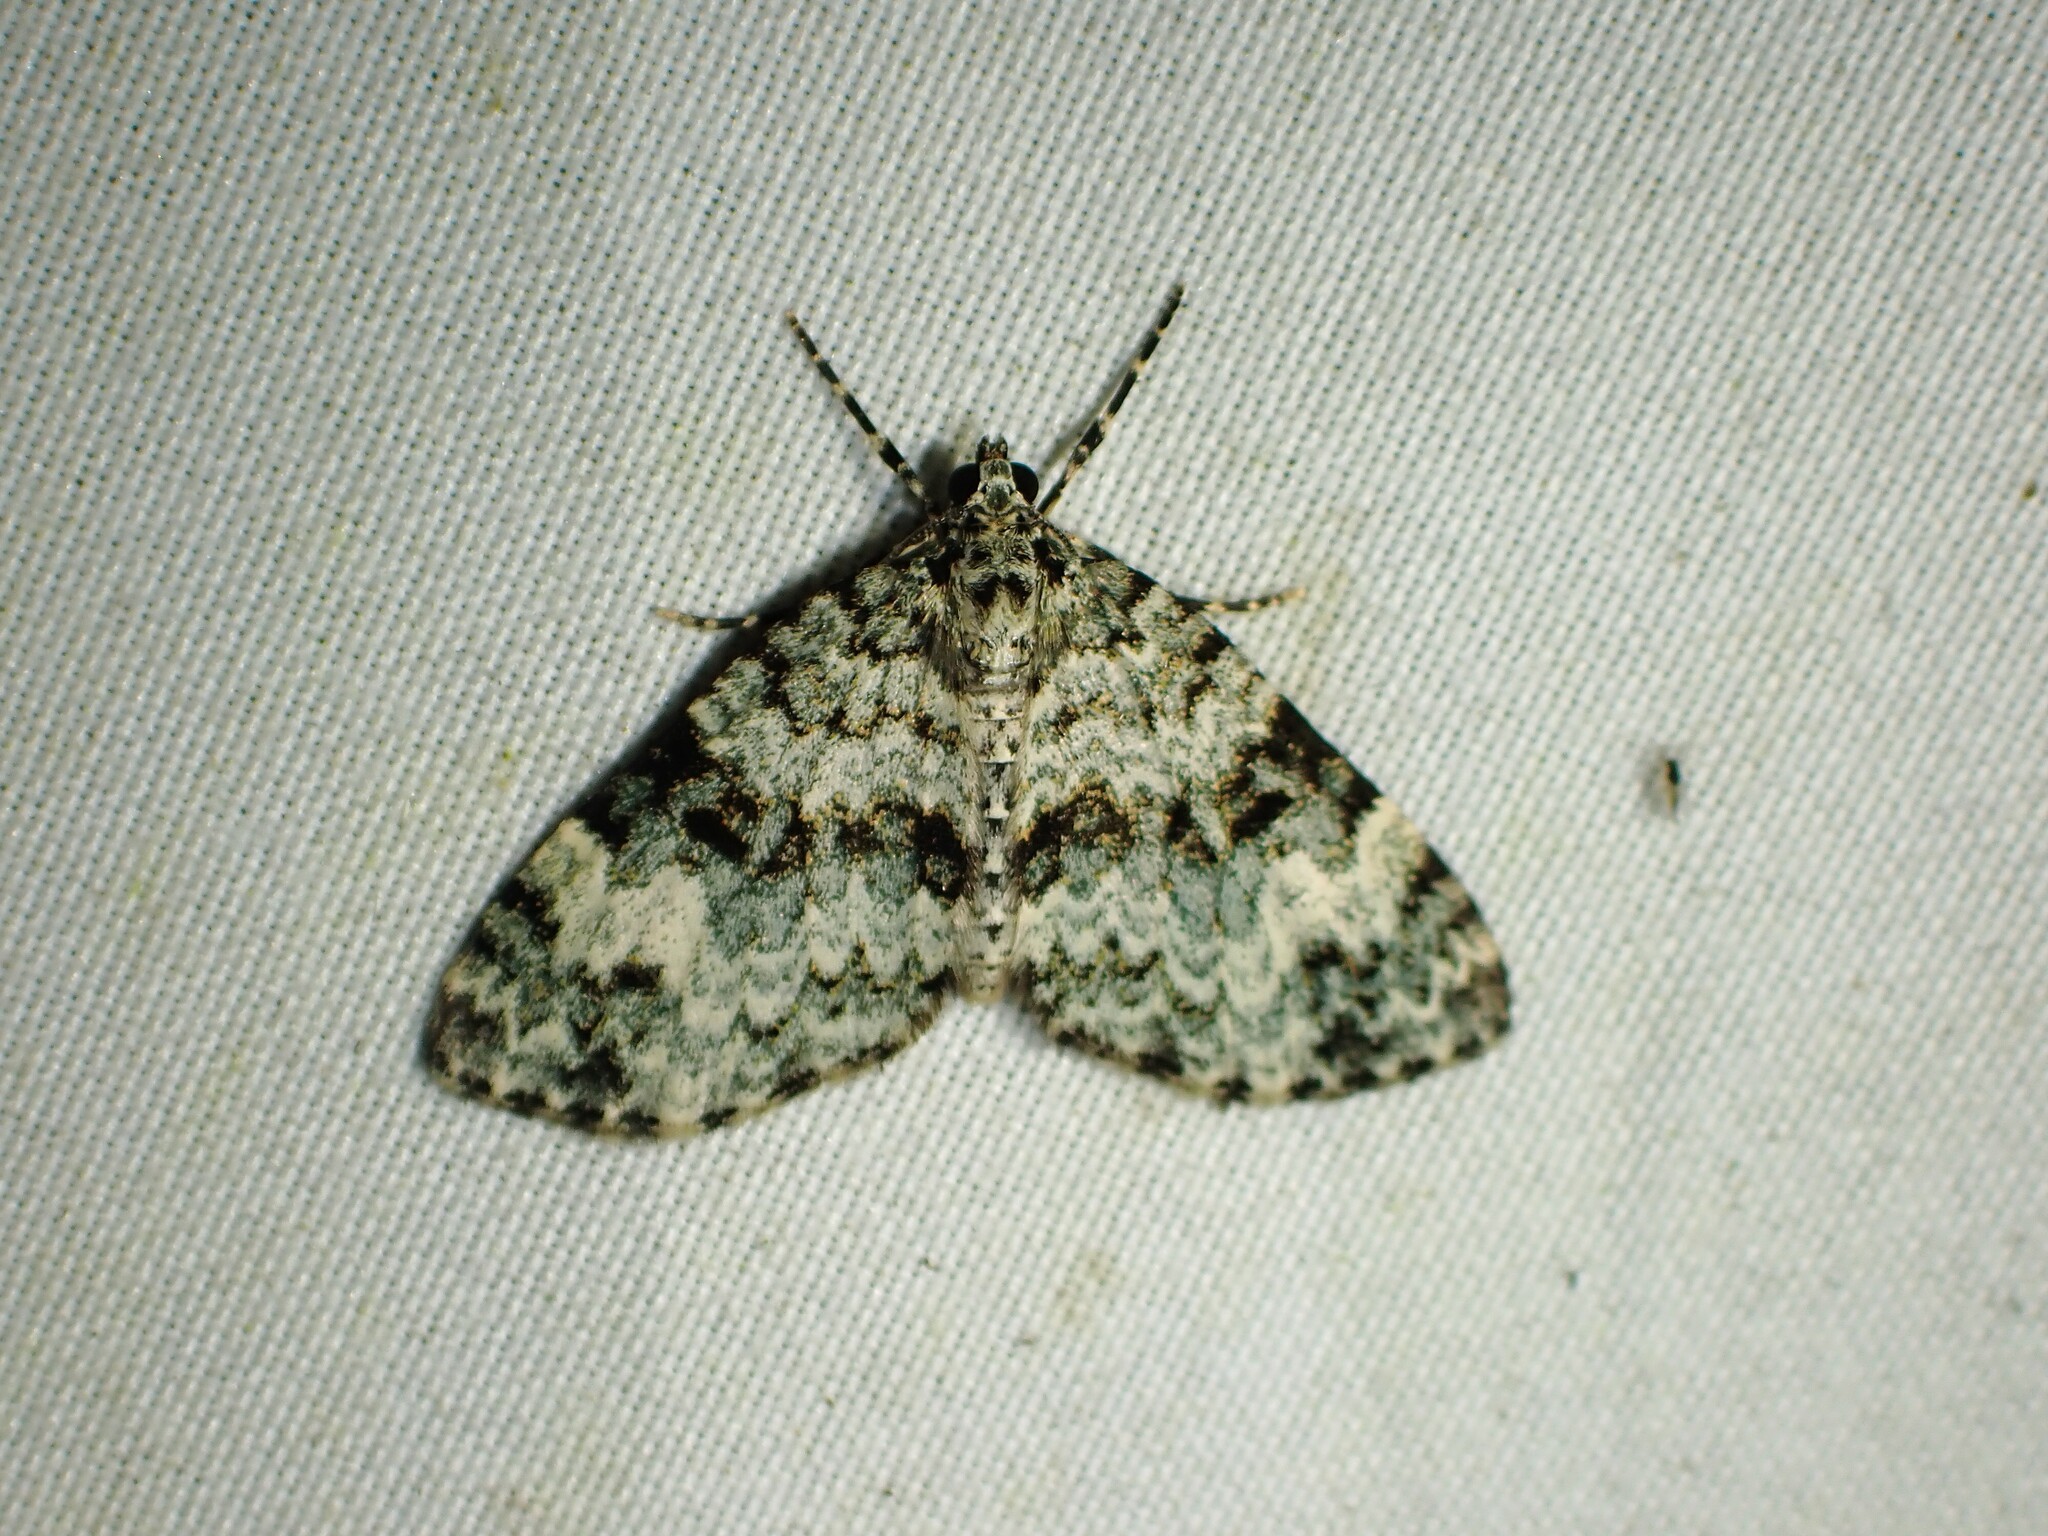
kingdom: Animalia
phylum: Arthropoda
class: Insecta
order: Lepidoptera
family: Geometridae
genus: Spargania
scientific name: Spargania magnoliata
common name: Double-banded carpet
